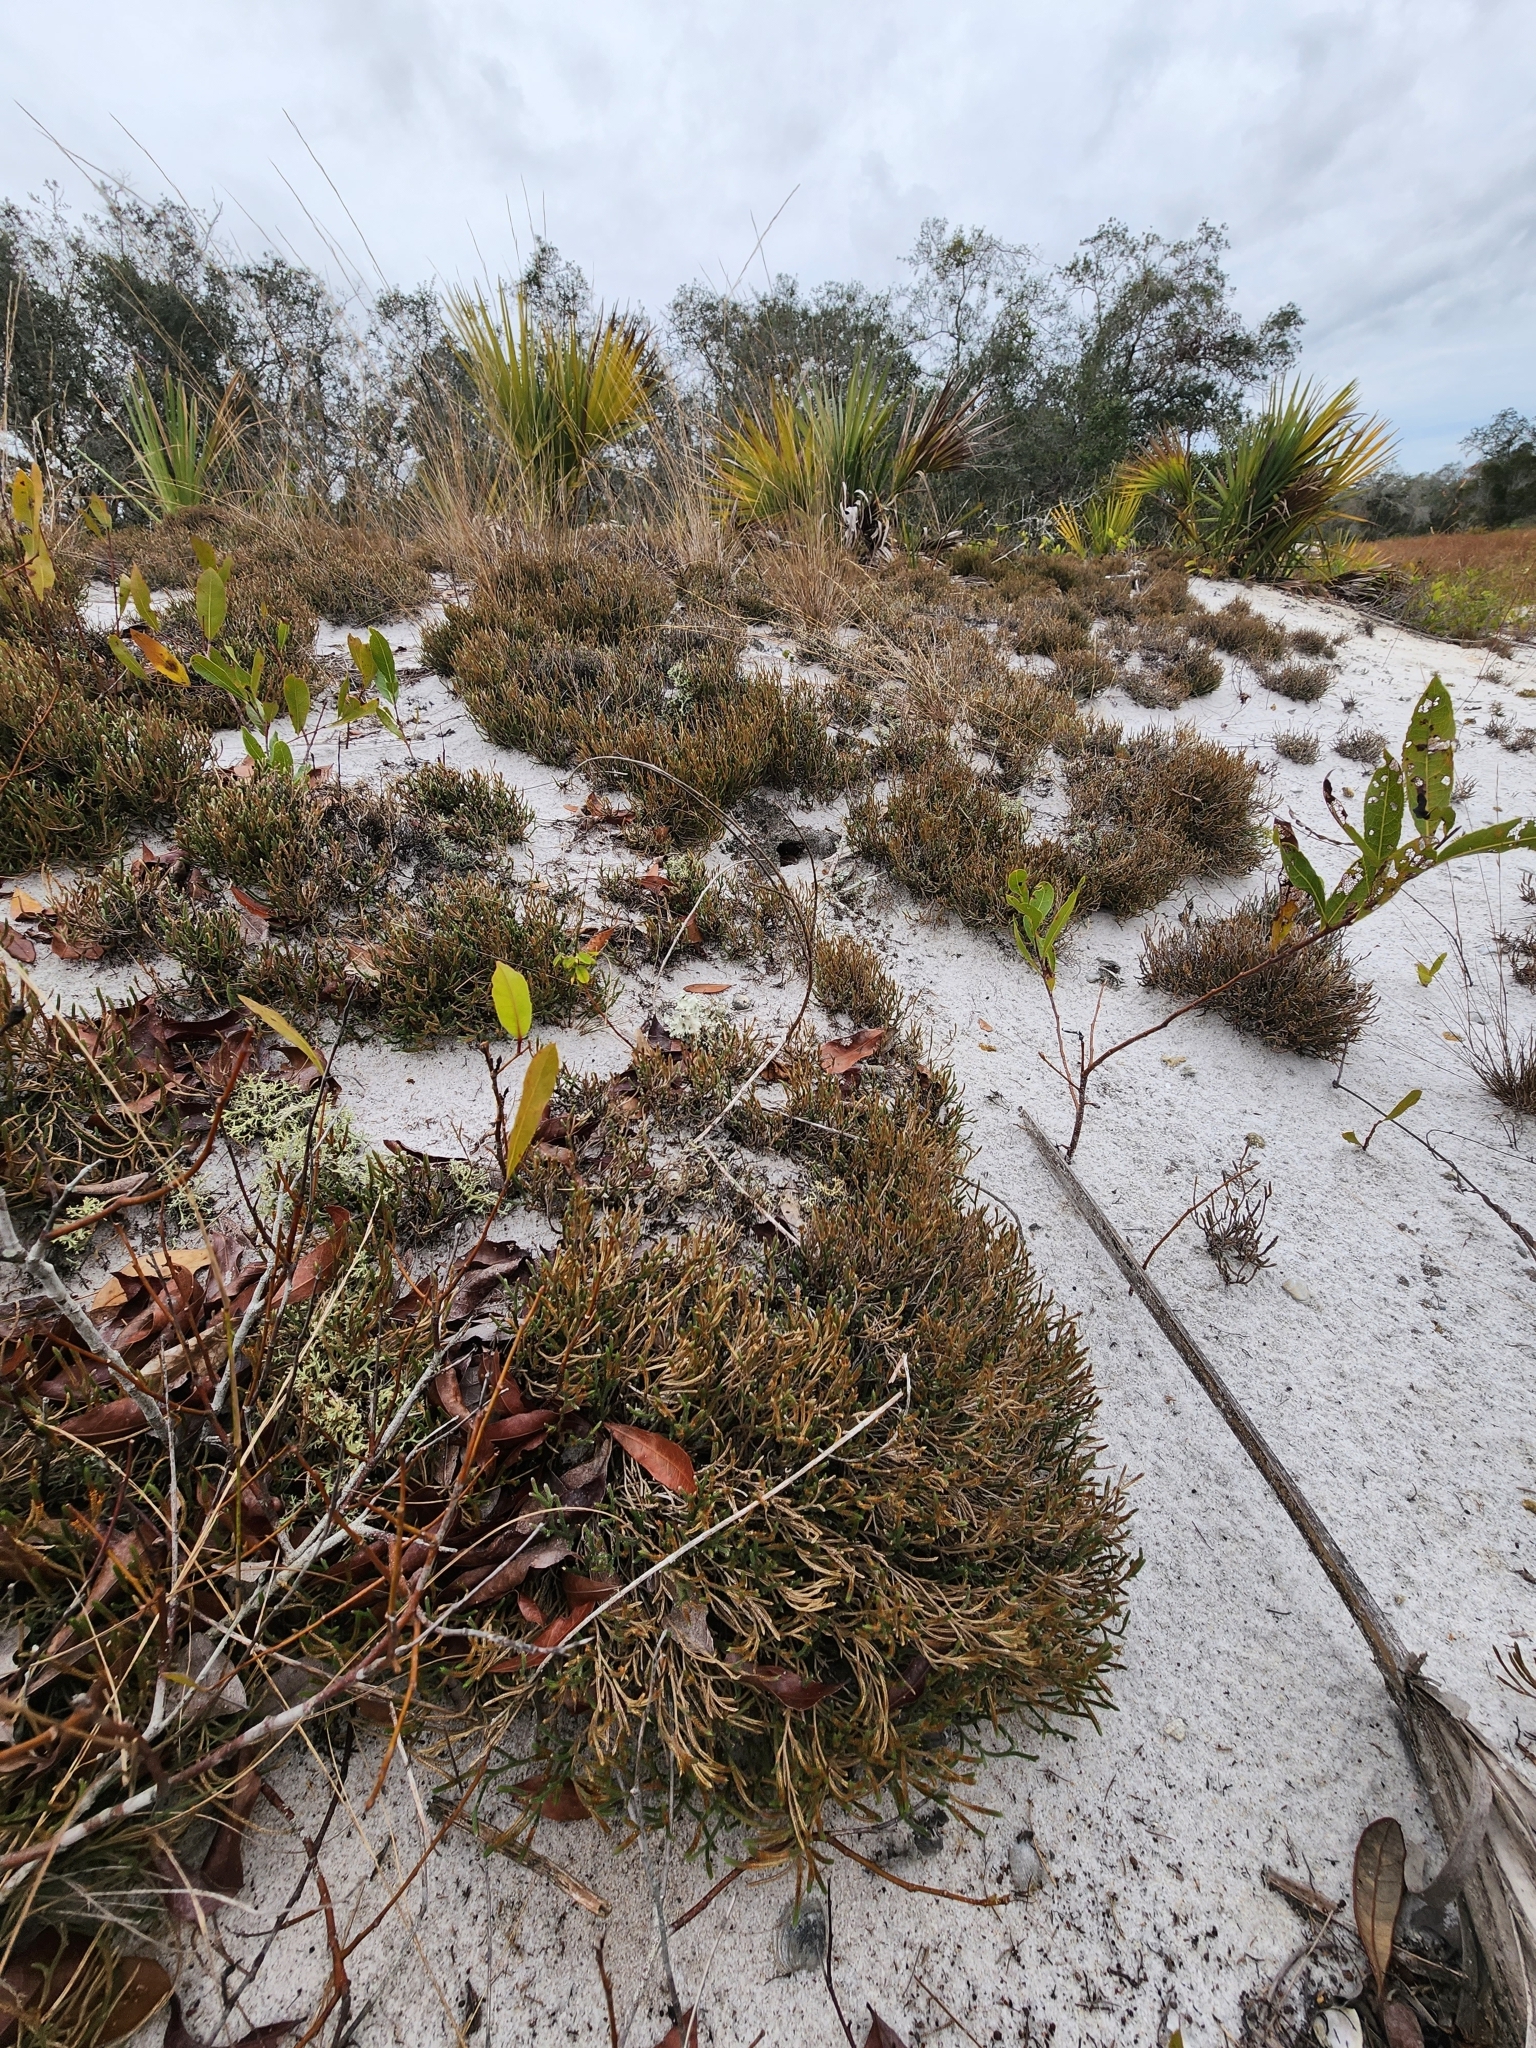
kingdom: Plantae
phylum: Tracheophyta
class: Lycopodiopsida
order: Selaginellales
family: Selaginellaceae
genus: Selaginella
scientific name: Selaginella arenicola
